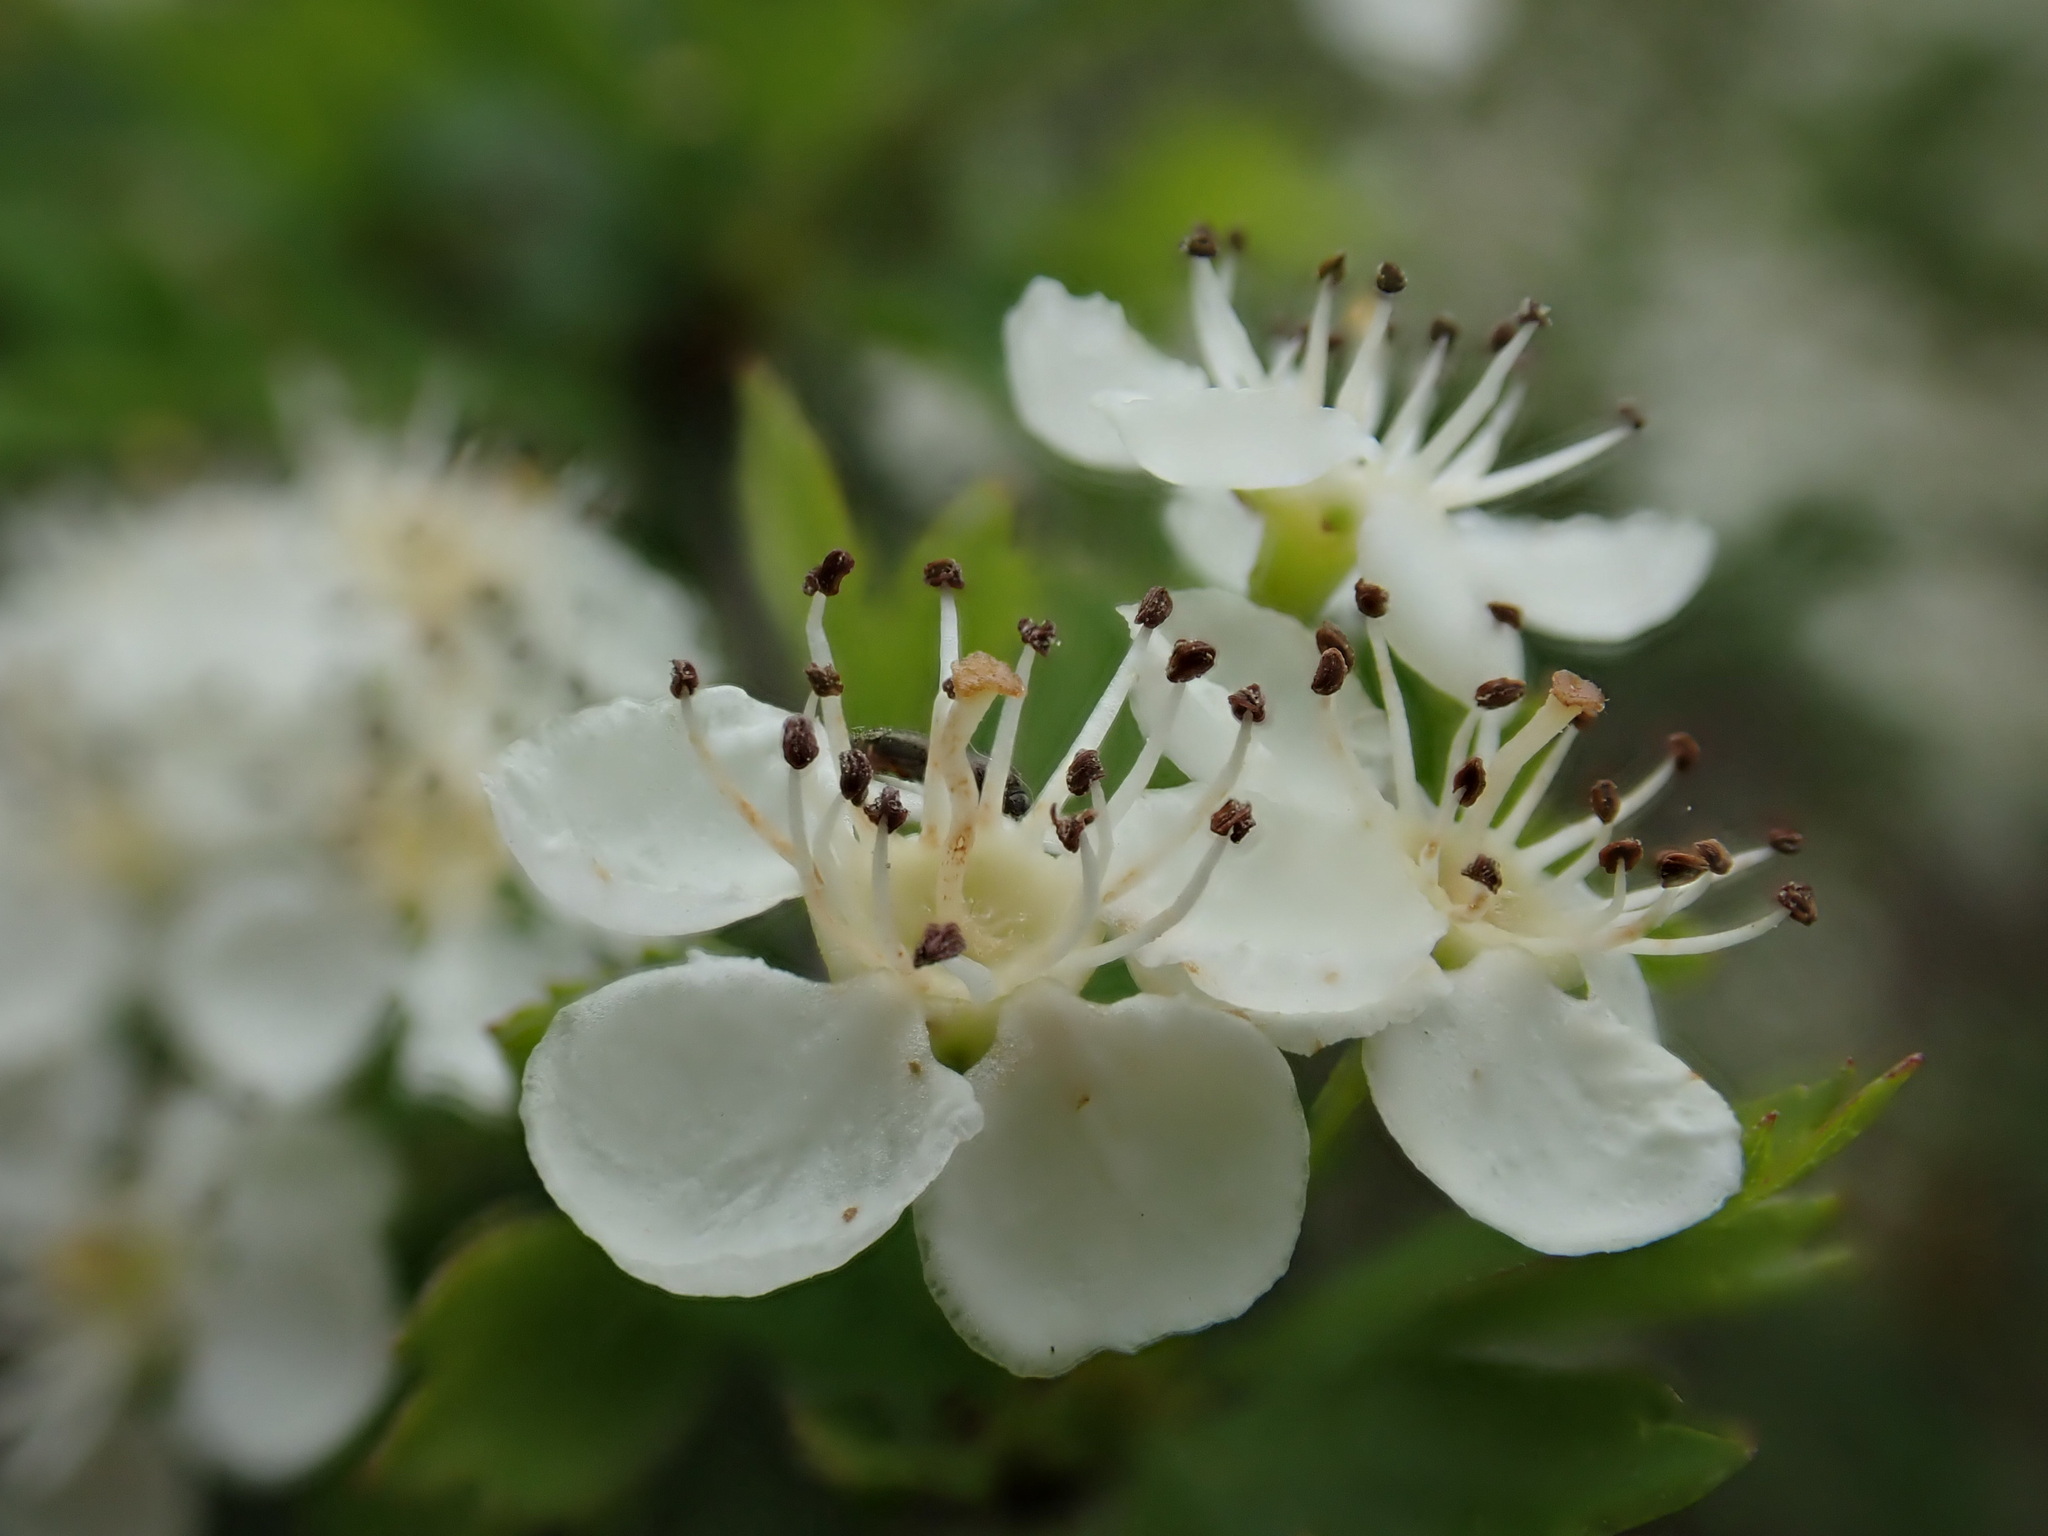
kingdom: Plantae
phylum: Tracheophyta
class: Magnoliopsida
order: Rosales
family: Rosaceae
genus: Crataegus
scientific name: Crataegus monogyna
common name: Hawthorn
